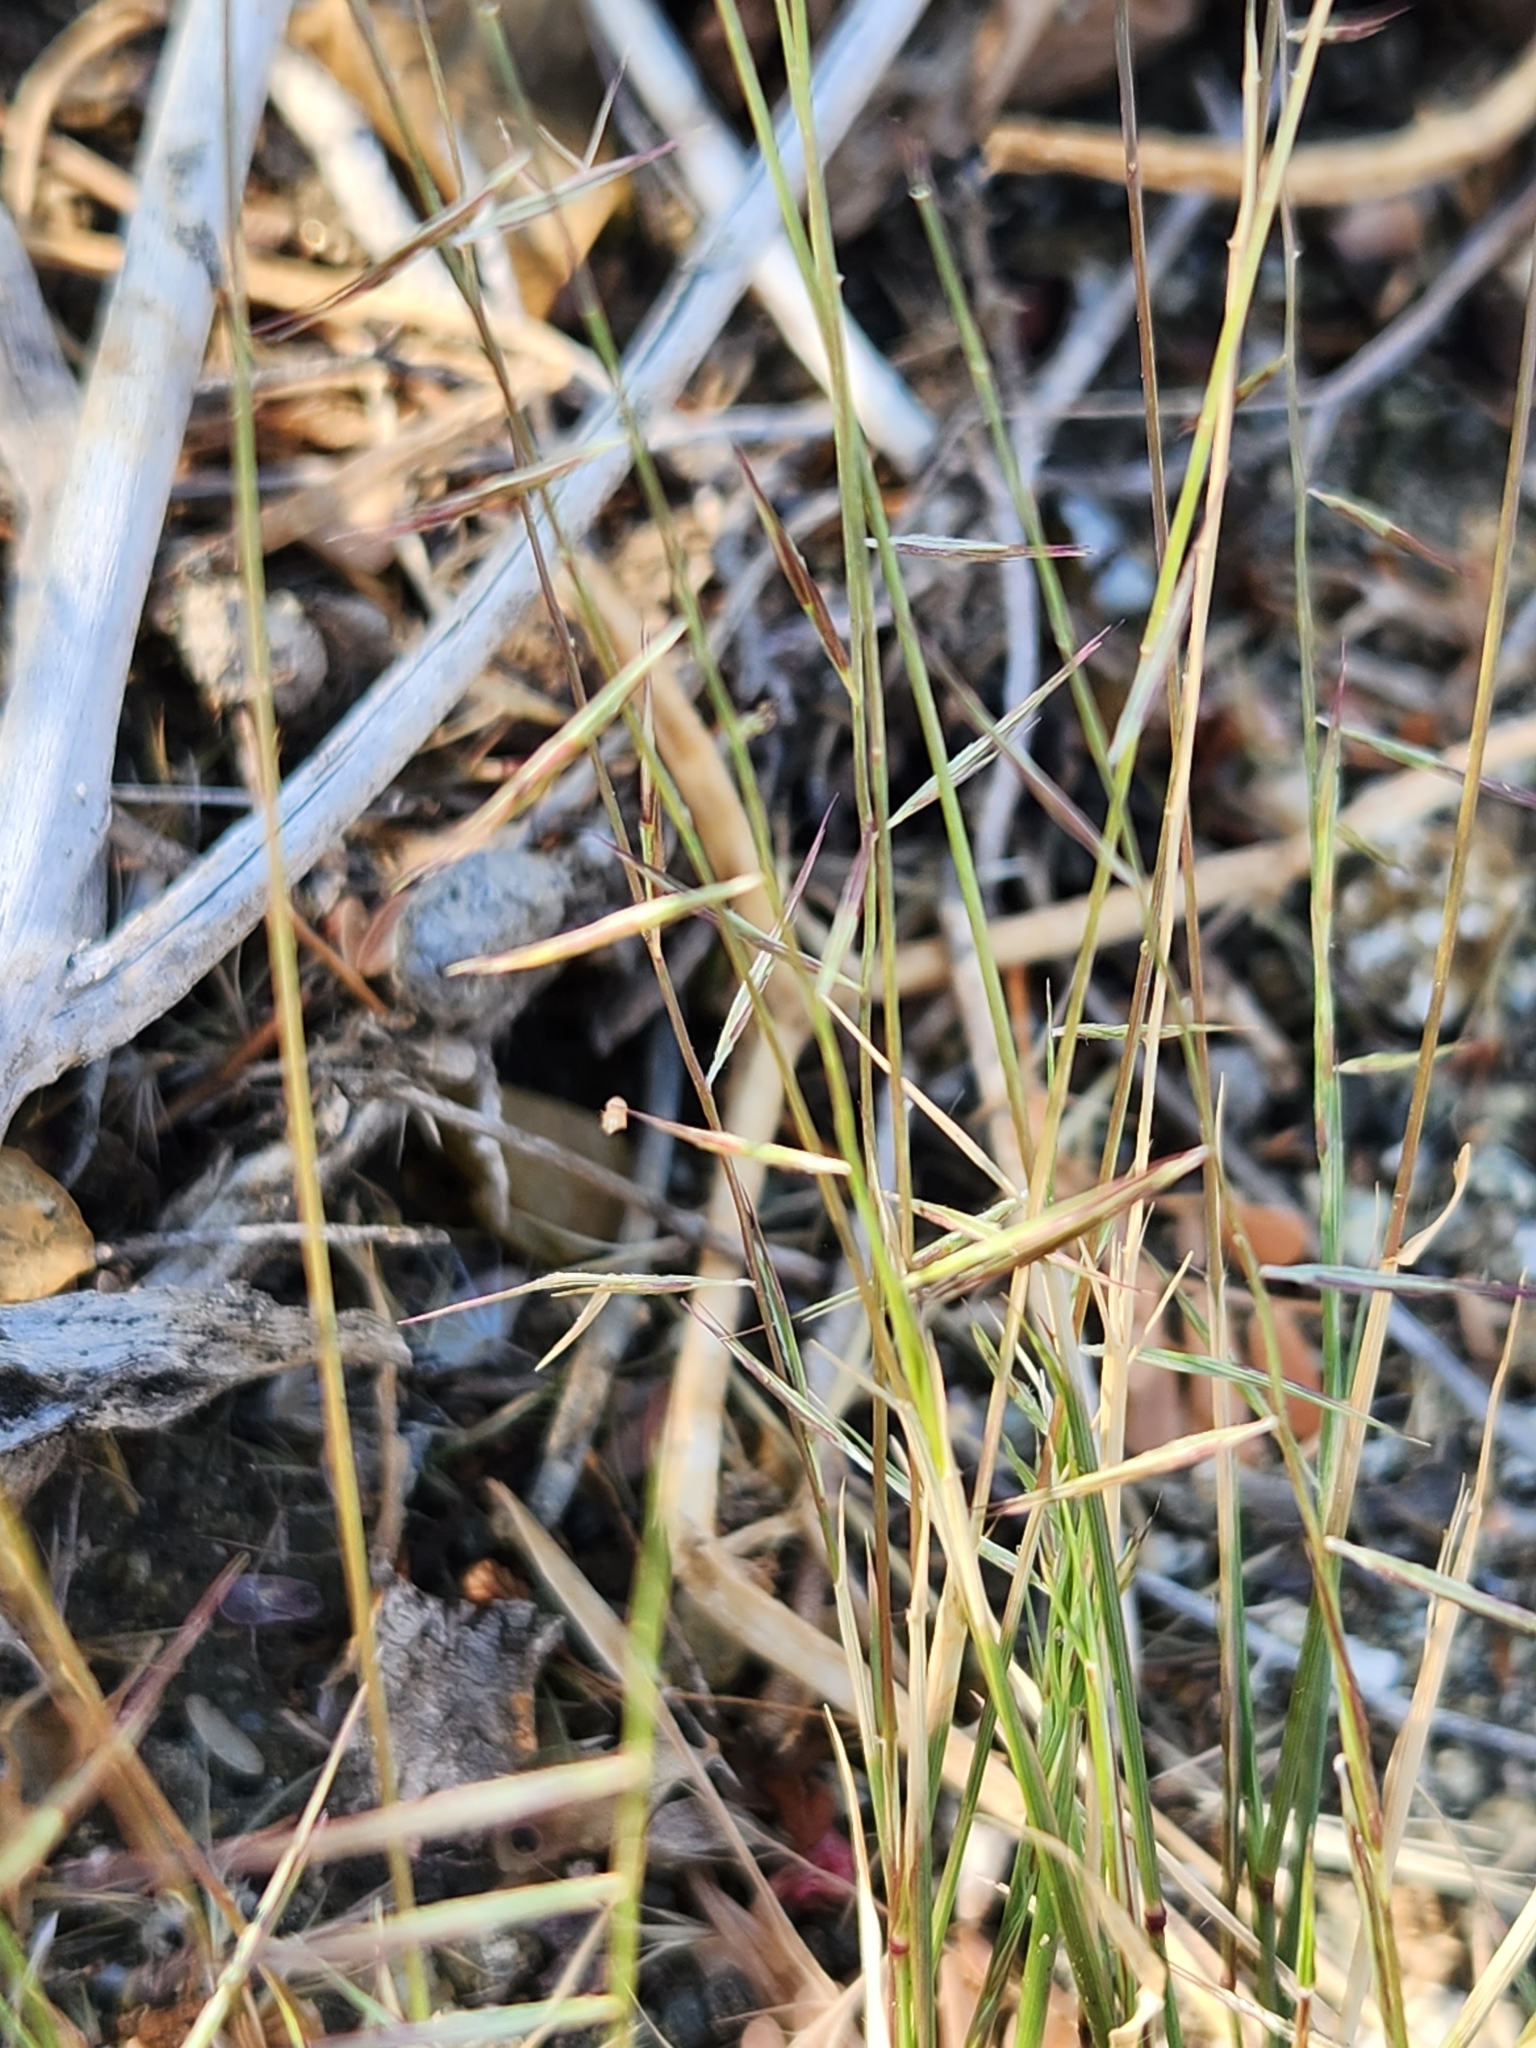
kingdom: Plantae
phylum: Tracheophyta
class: Liliopsida
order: Poales
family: Poaceae
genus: Bouteloua
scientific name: Bouteloua aristidoides
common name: Needle grama
